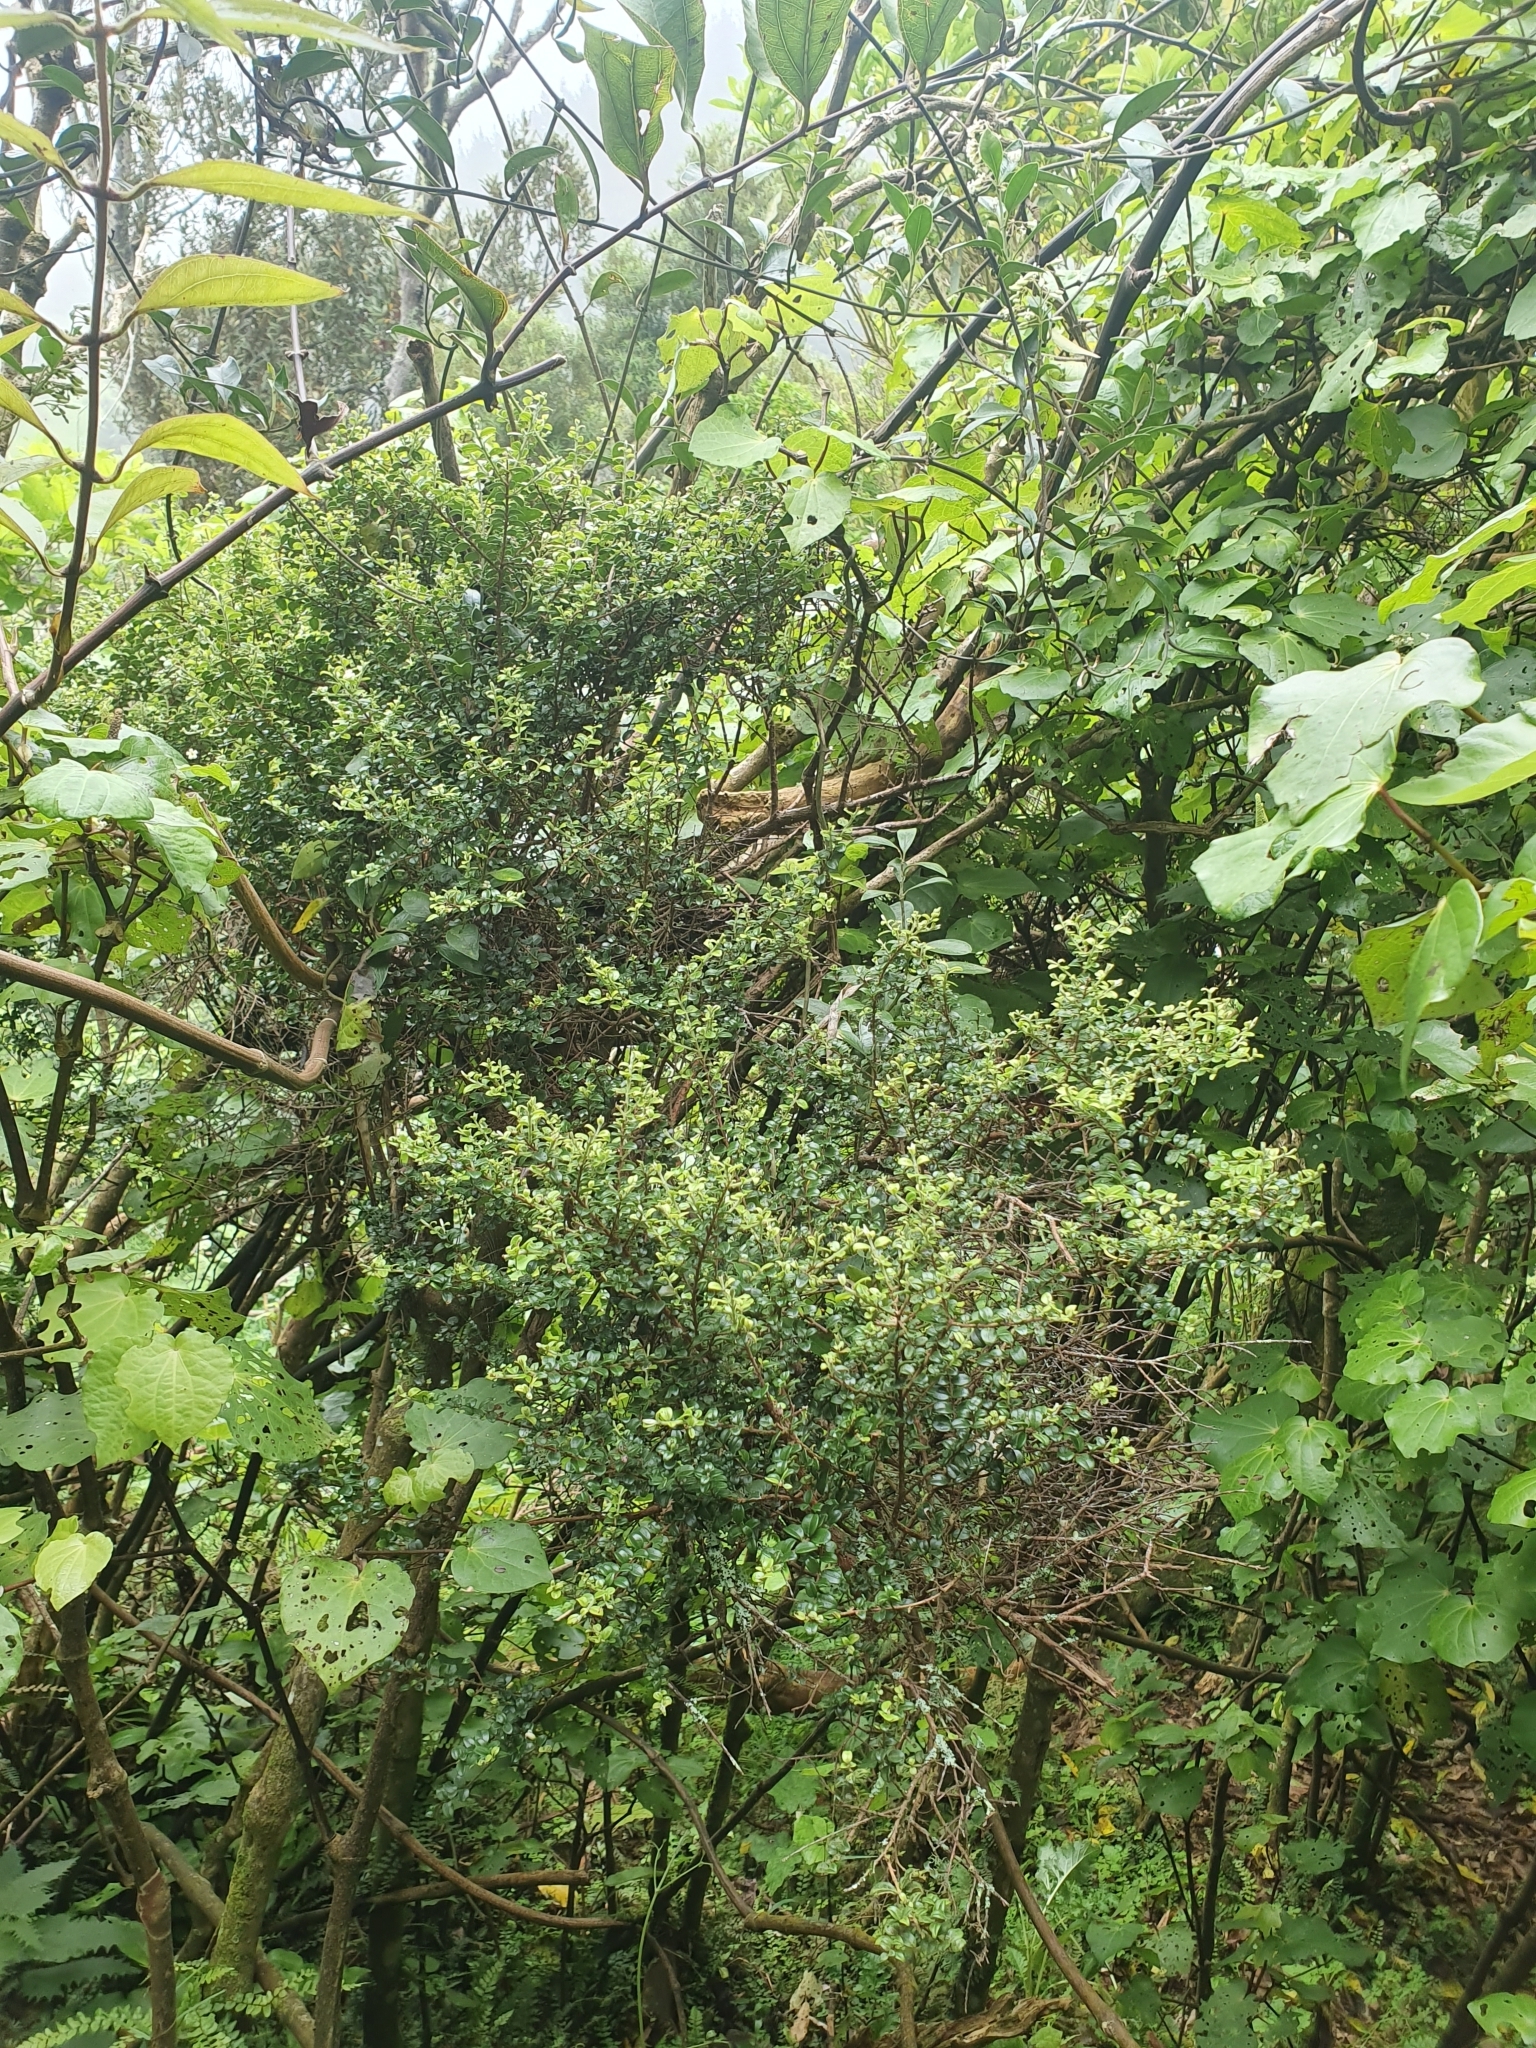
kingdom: Plantae
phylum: Tracheophyta
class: Magnoliopsida
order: Myrtales
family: Myrtaceae
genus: Metrosideros
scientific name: Metrosideros perforata
